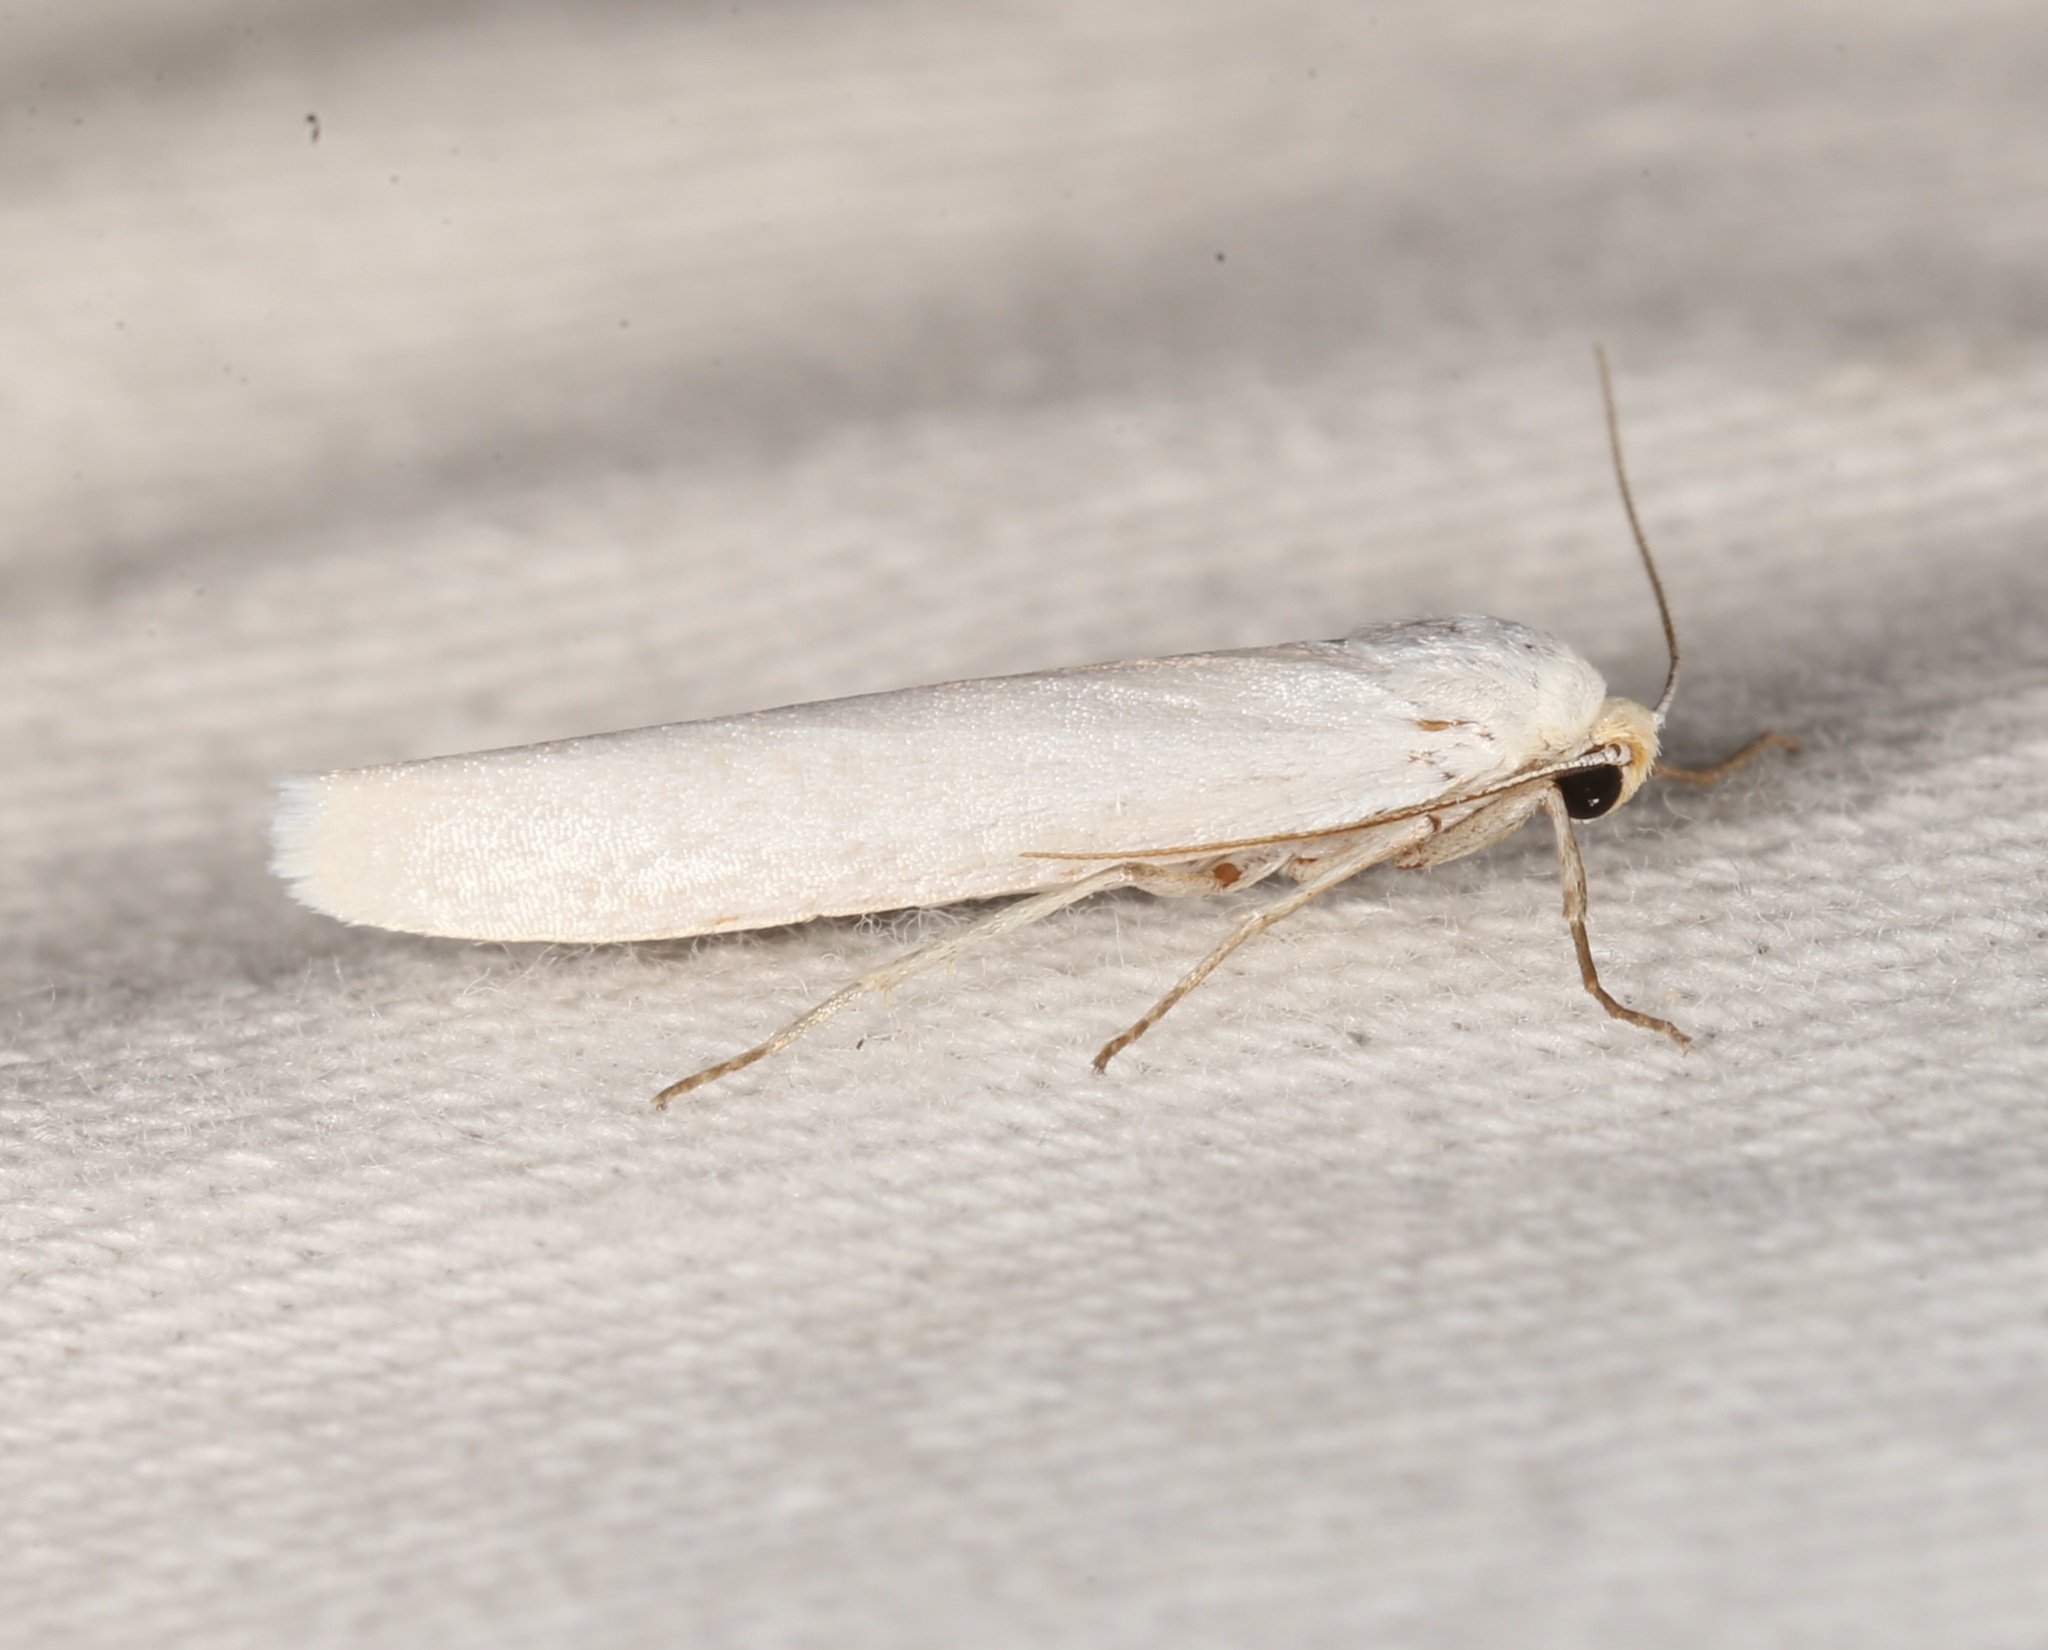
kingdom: Animalia
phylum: Arthropoda
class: Insecta
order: Lepidoptera
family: Erebidae
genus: Crambidia
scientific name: Crambidia cephalica
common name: Yellow-headed lichen moth
